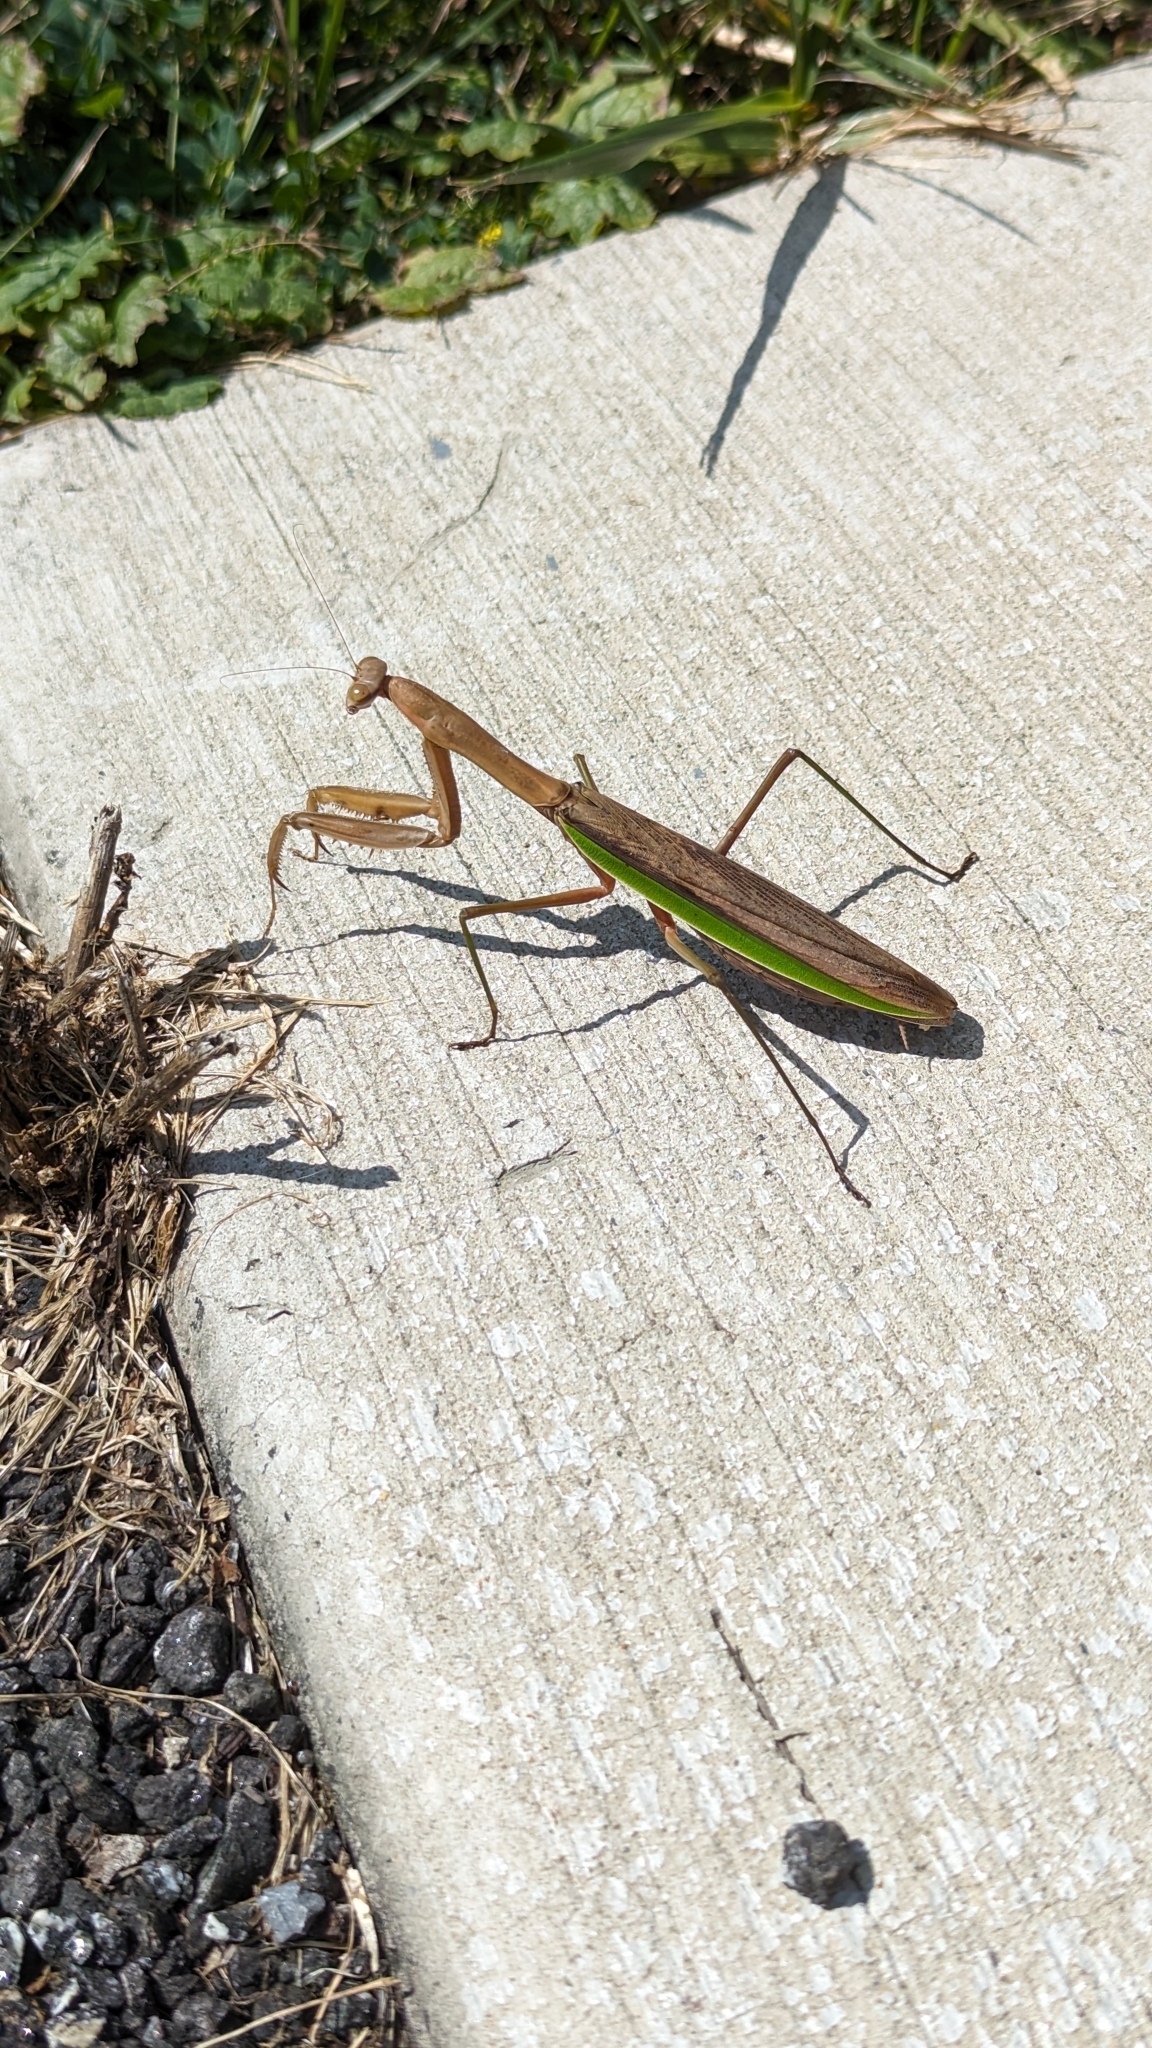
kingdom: Animalia
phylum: Arthropoda
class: Insecta
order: Mantodea
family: Mantidae
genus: Tenodera
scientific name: Tenodera sinensis
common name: Chinese mantis
